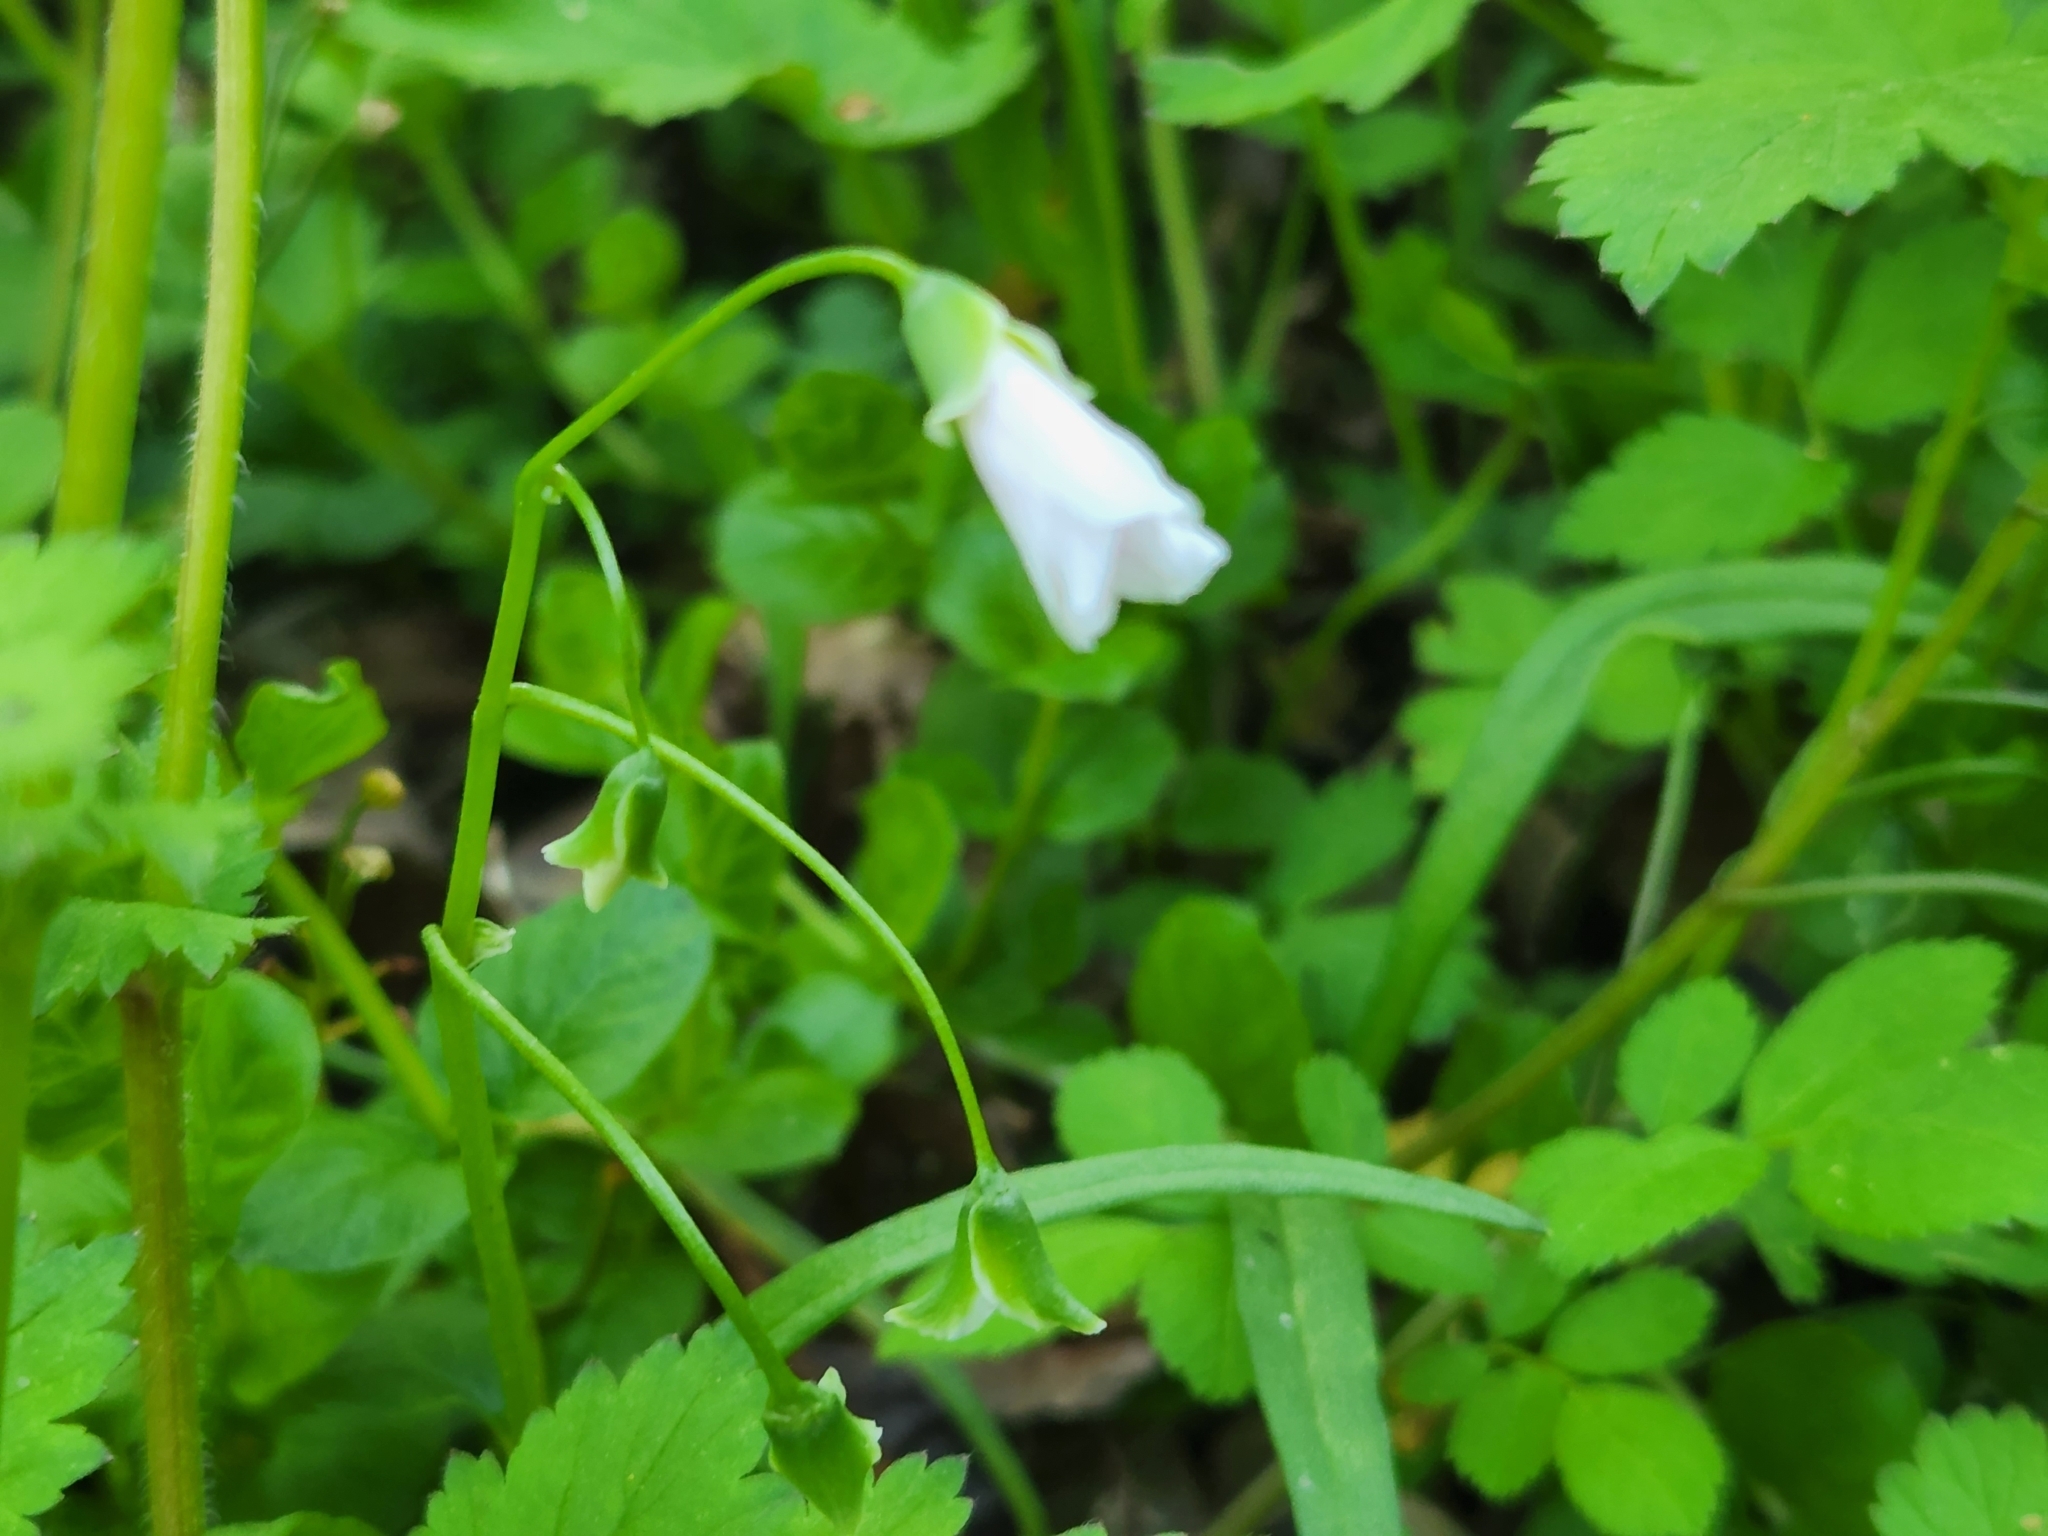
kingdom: Plantae
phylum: Tracheophyta
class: Magnoliopsida
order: Caryophyllales
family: Montiaceae
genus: Claytonia
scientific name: Claytonia virginica
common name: Virginia springbeauty
